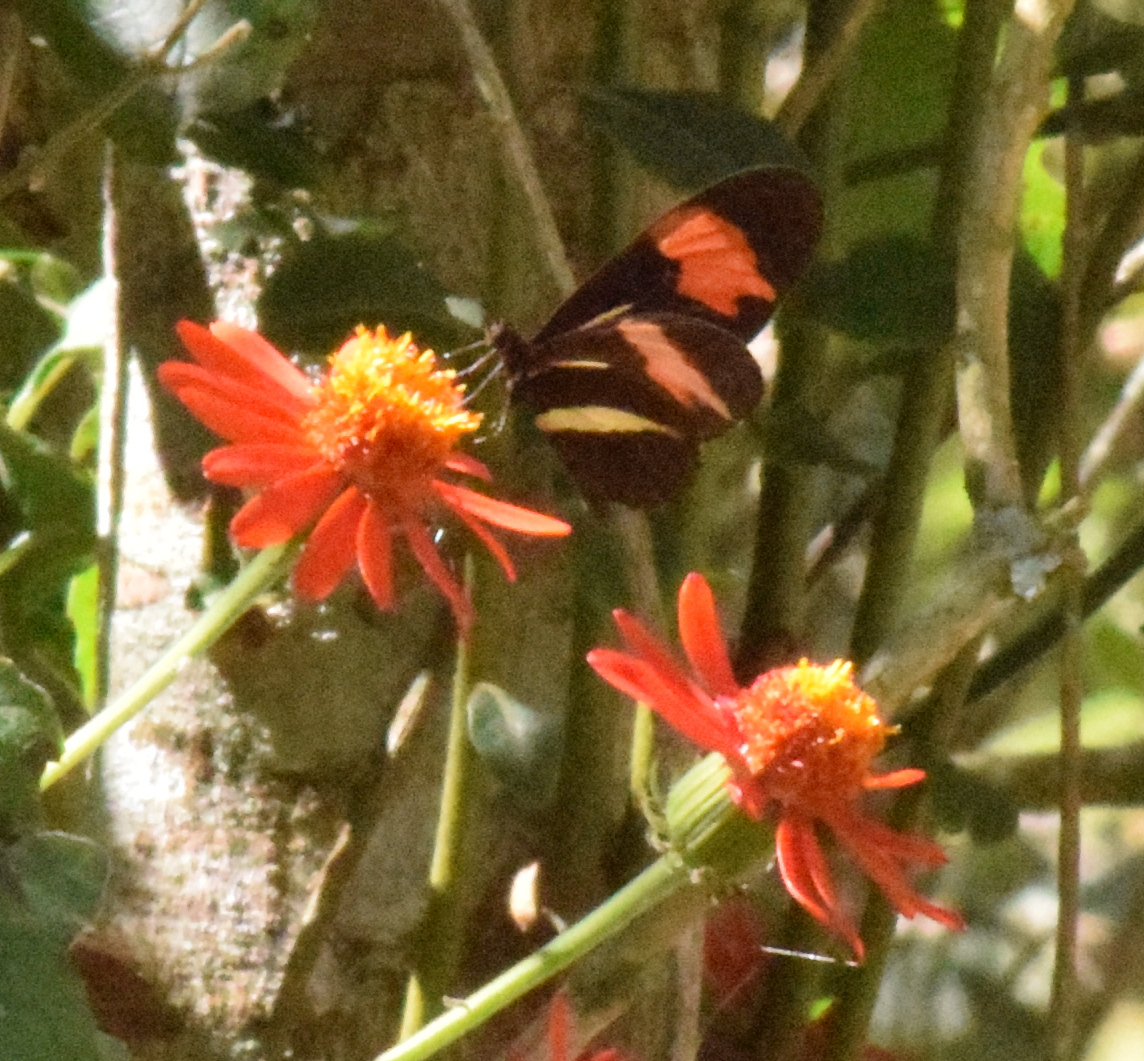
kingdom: Animalia
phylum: Arthropoda
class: Insecta
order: Lepidoptera
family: Nymphalidae
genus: Heliconius
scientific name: Heliconius erato
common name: Common patch longwing
